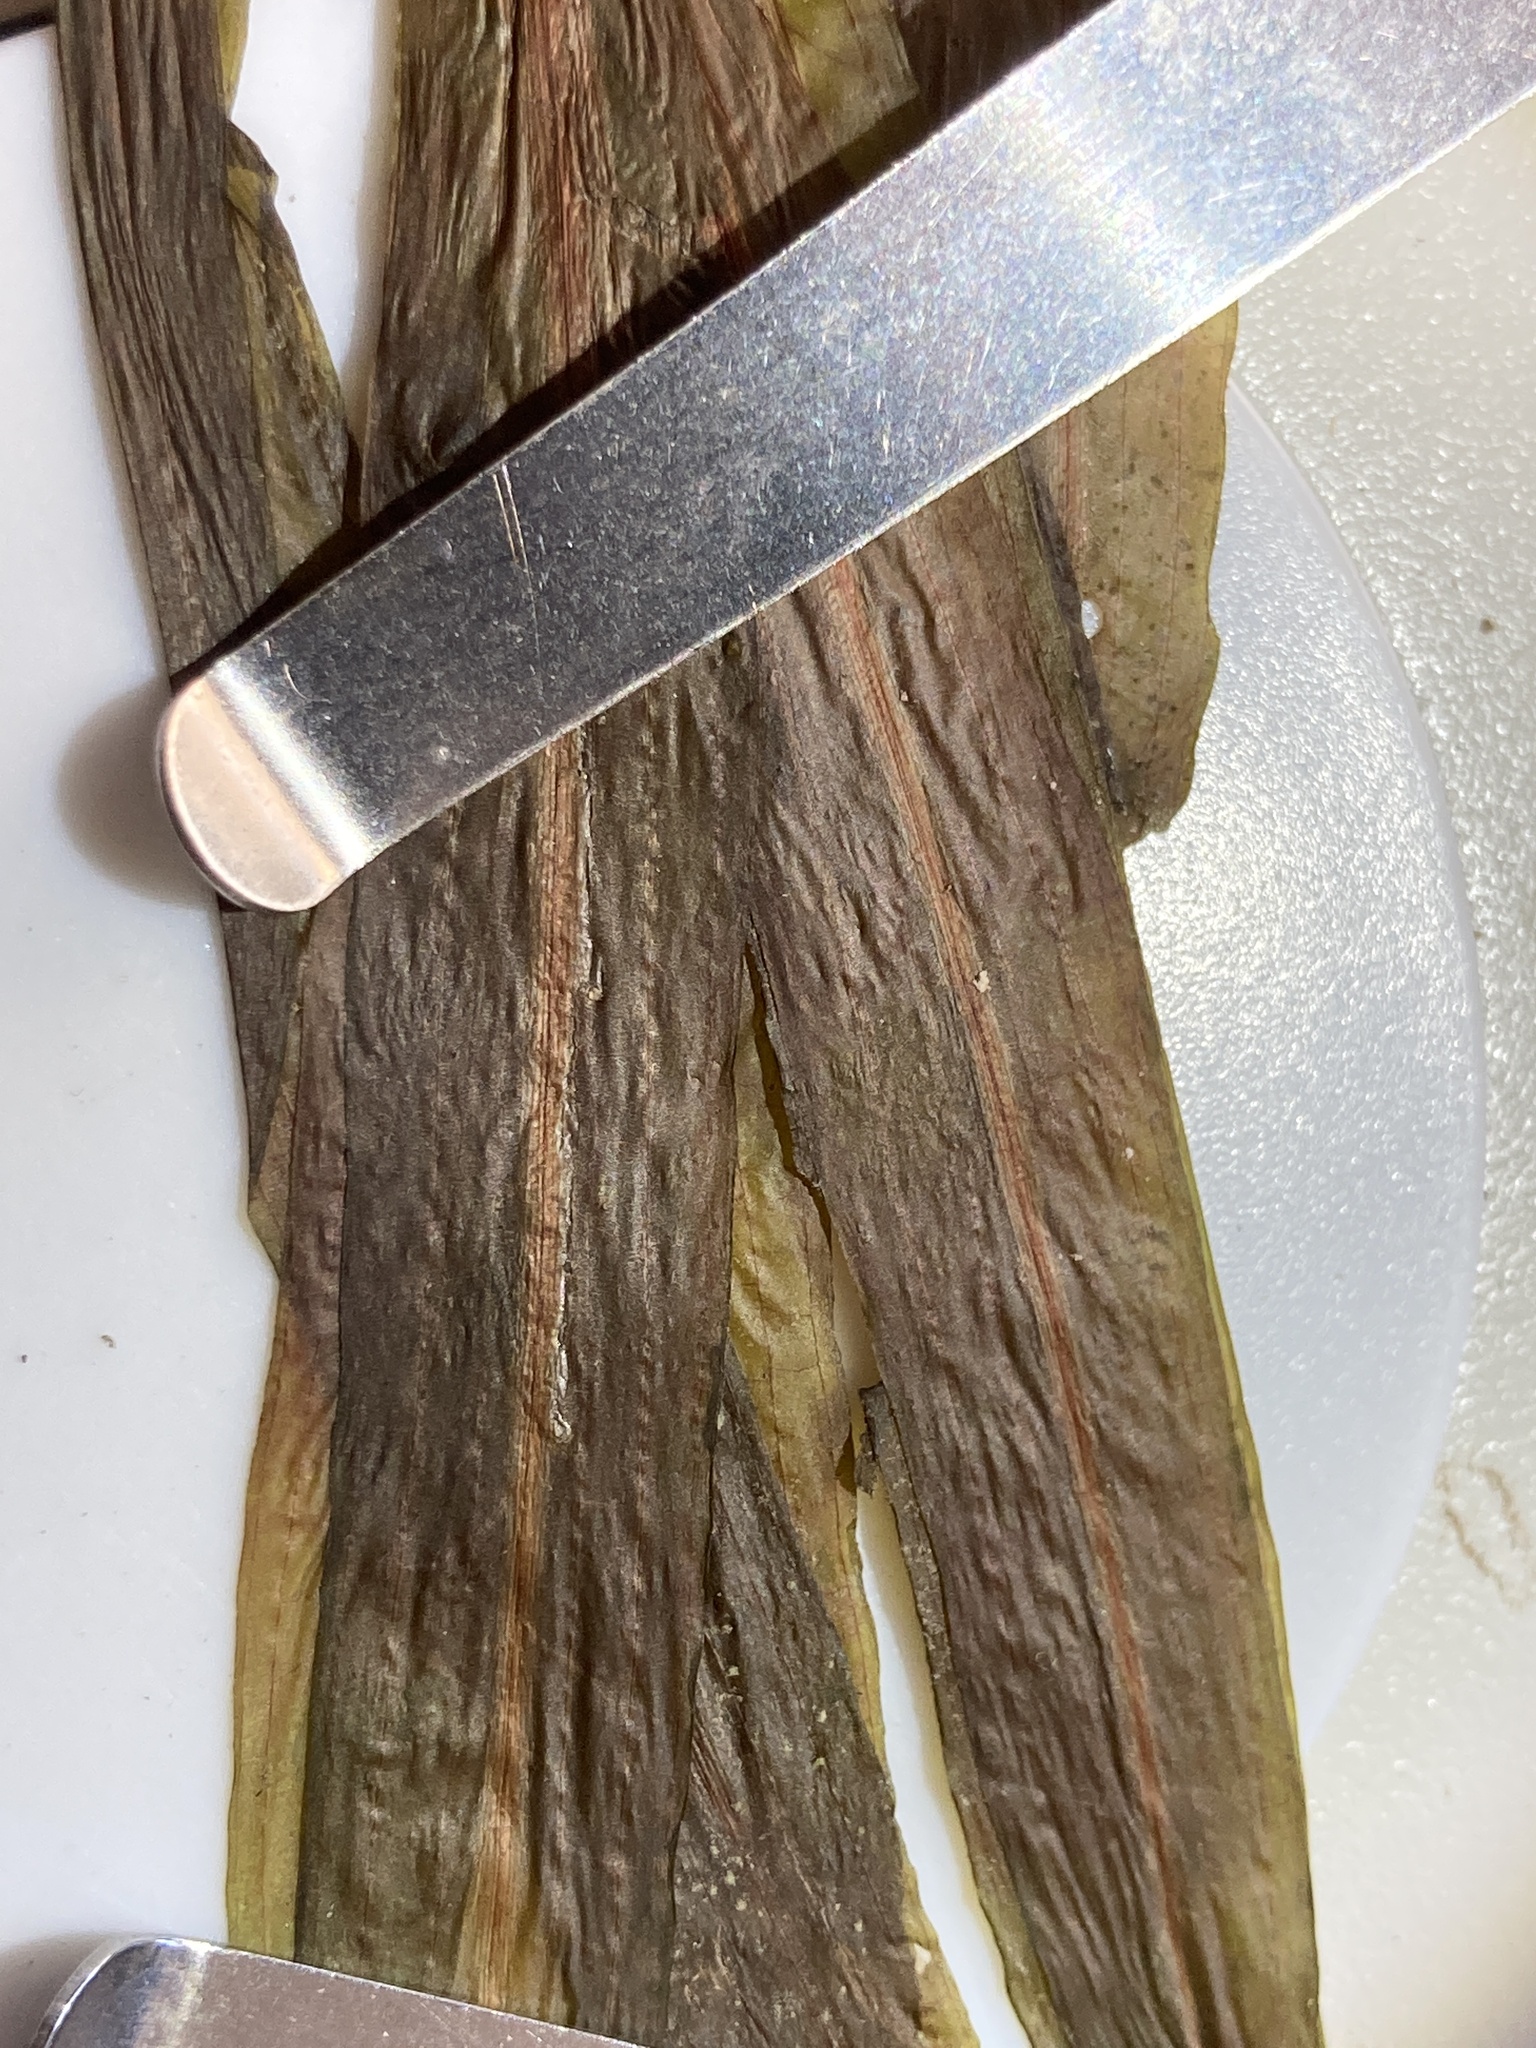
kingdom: Plantae
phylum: Tracheophyta
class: Liliopsida
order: Alismatales
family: Potamogetonaceae
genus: Potamogeton
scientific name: Potamogeton alpinus
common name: Red pondweed
